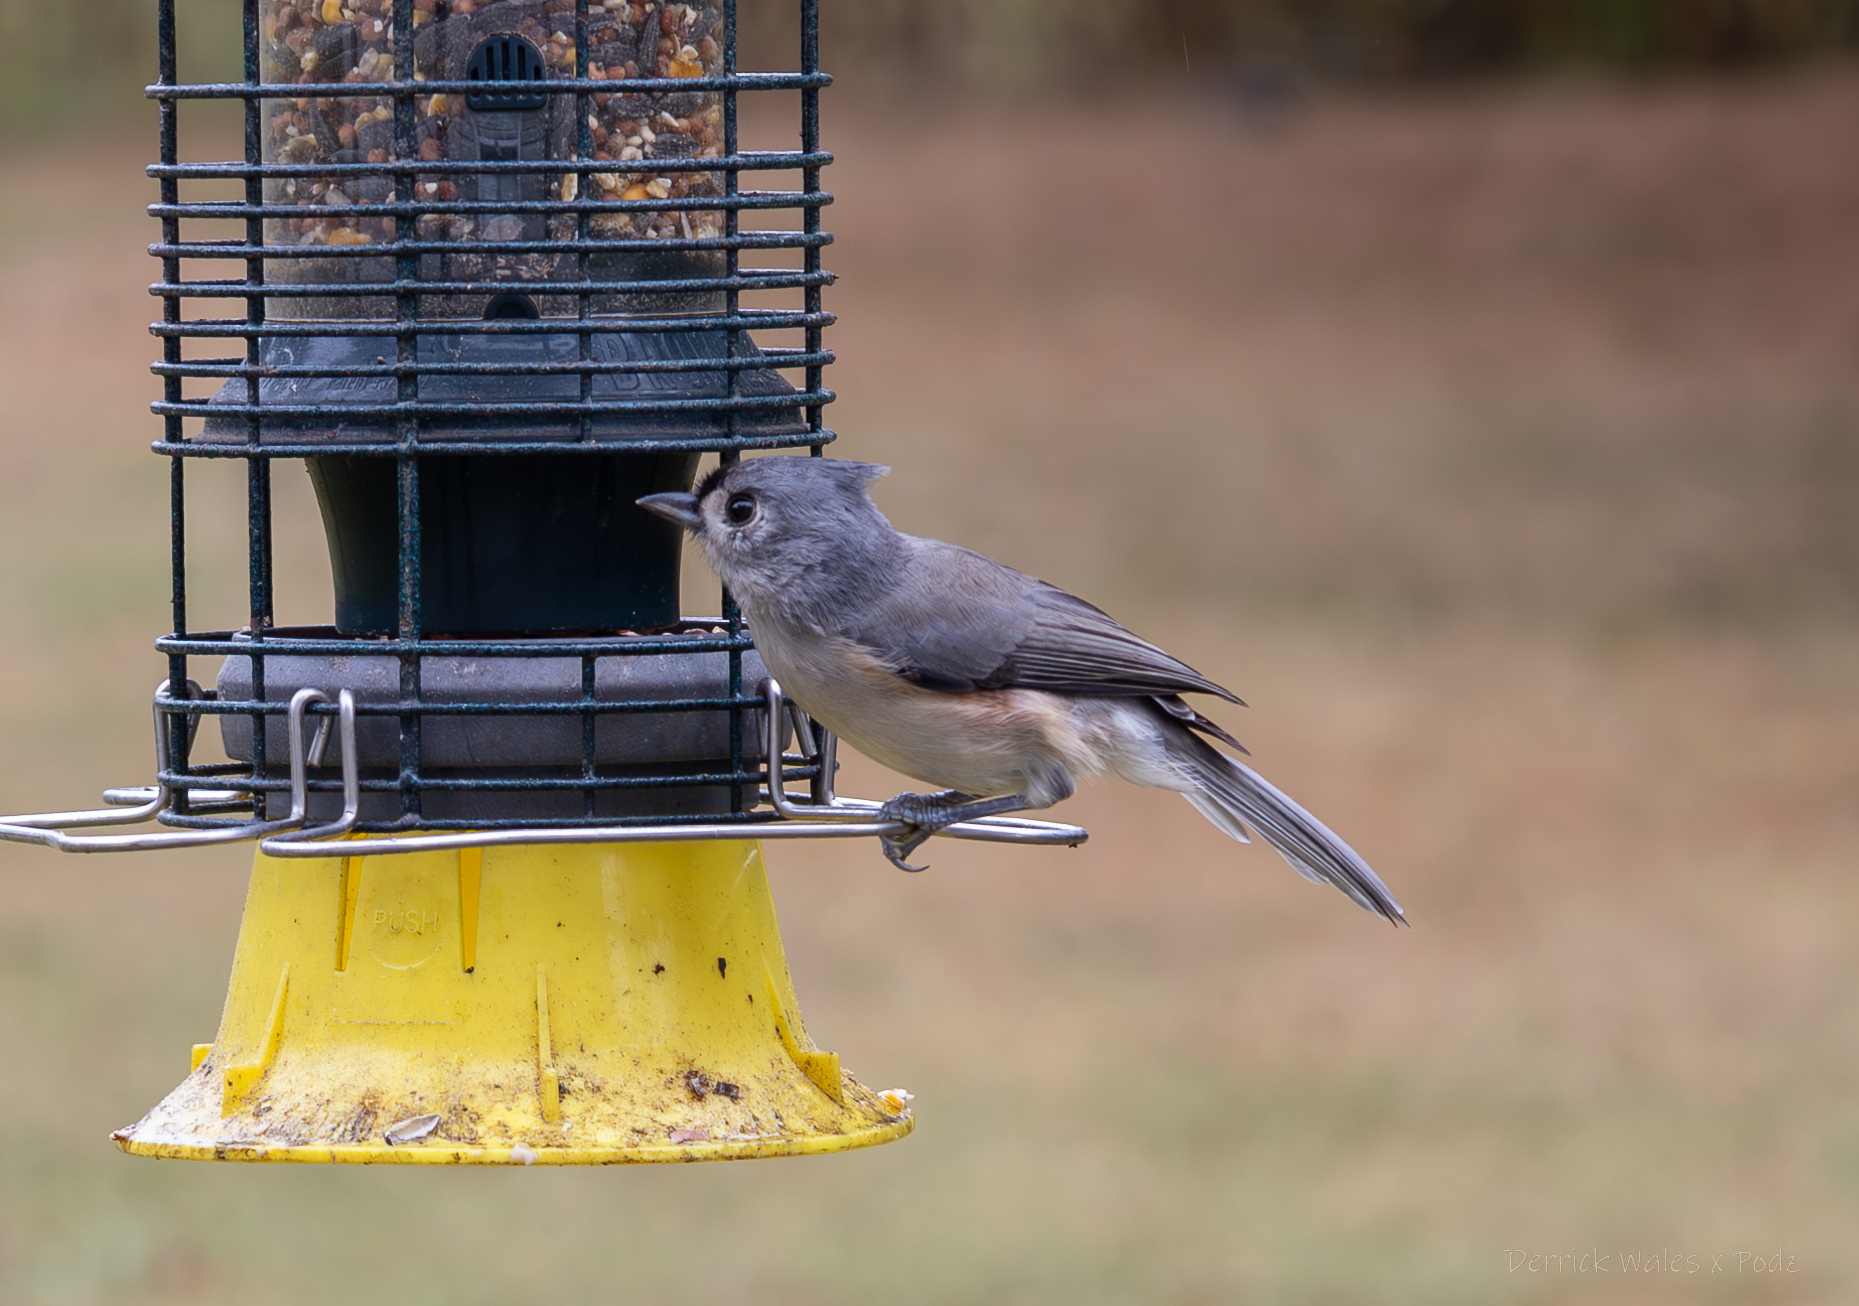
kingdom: Animalia
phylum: Chordata
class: Aves
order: Passeriformes
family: Paridae
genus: Baeolophus
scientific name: Baeolophus bicolor
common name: Tufted titmouse
